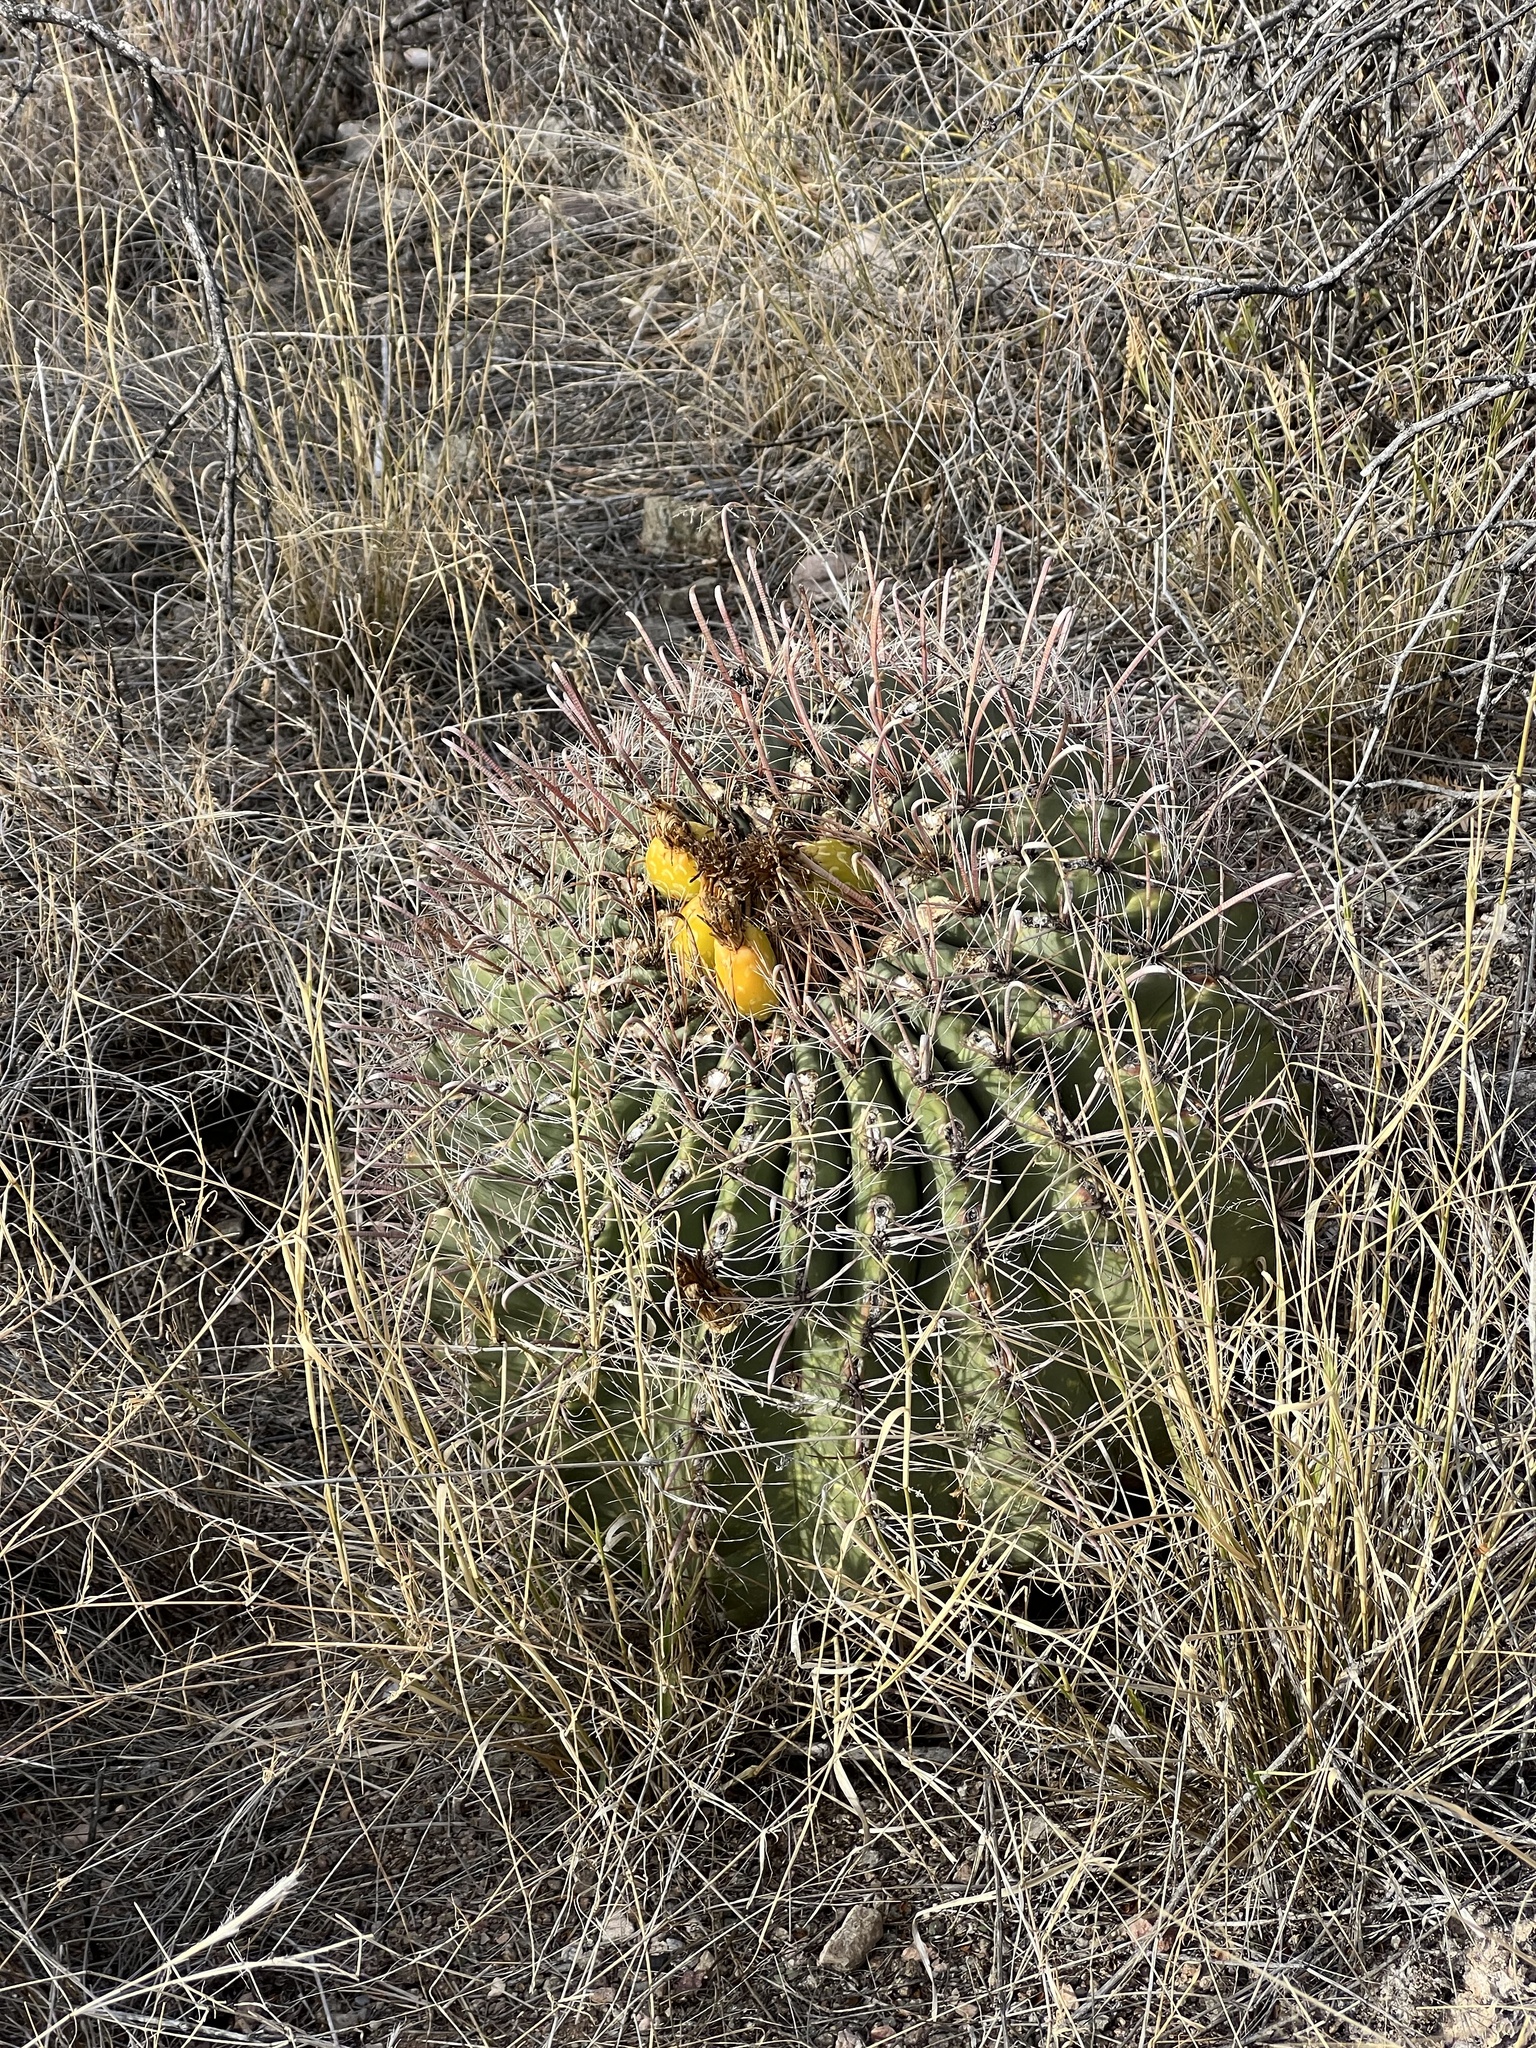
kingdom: Plantae
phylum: Tracheophyta
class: Magnoliopsida
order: Caryophyllales
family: Cactaceae
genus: Ferocactus
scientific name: Ferocactus wislizeni
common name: Candy barrel cactus
